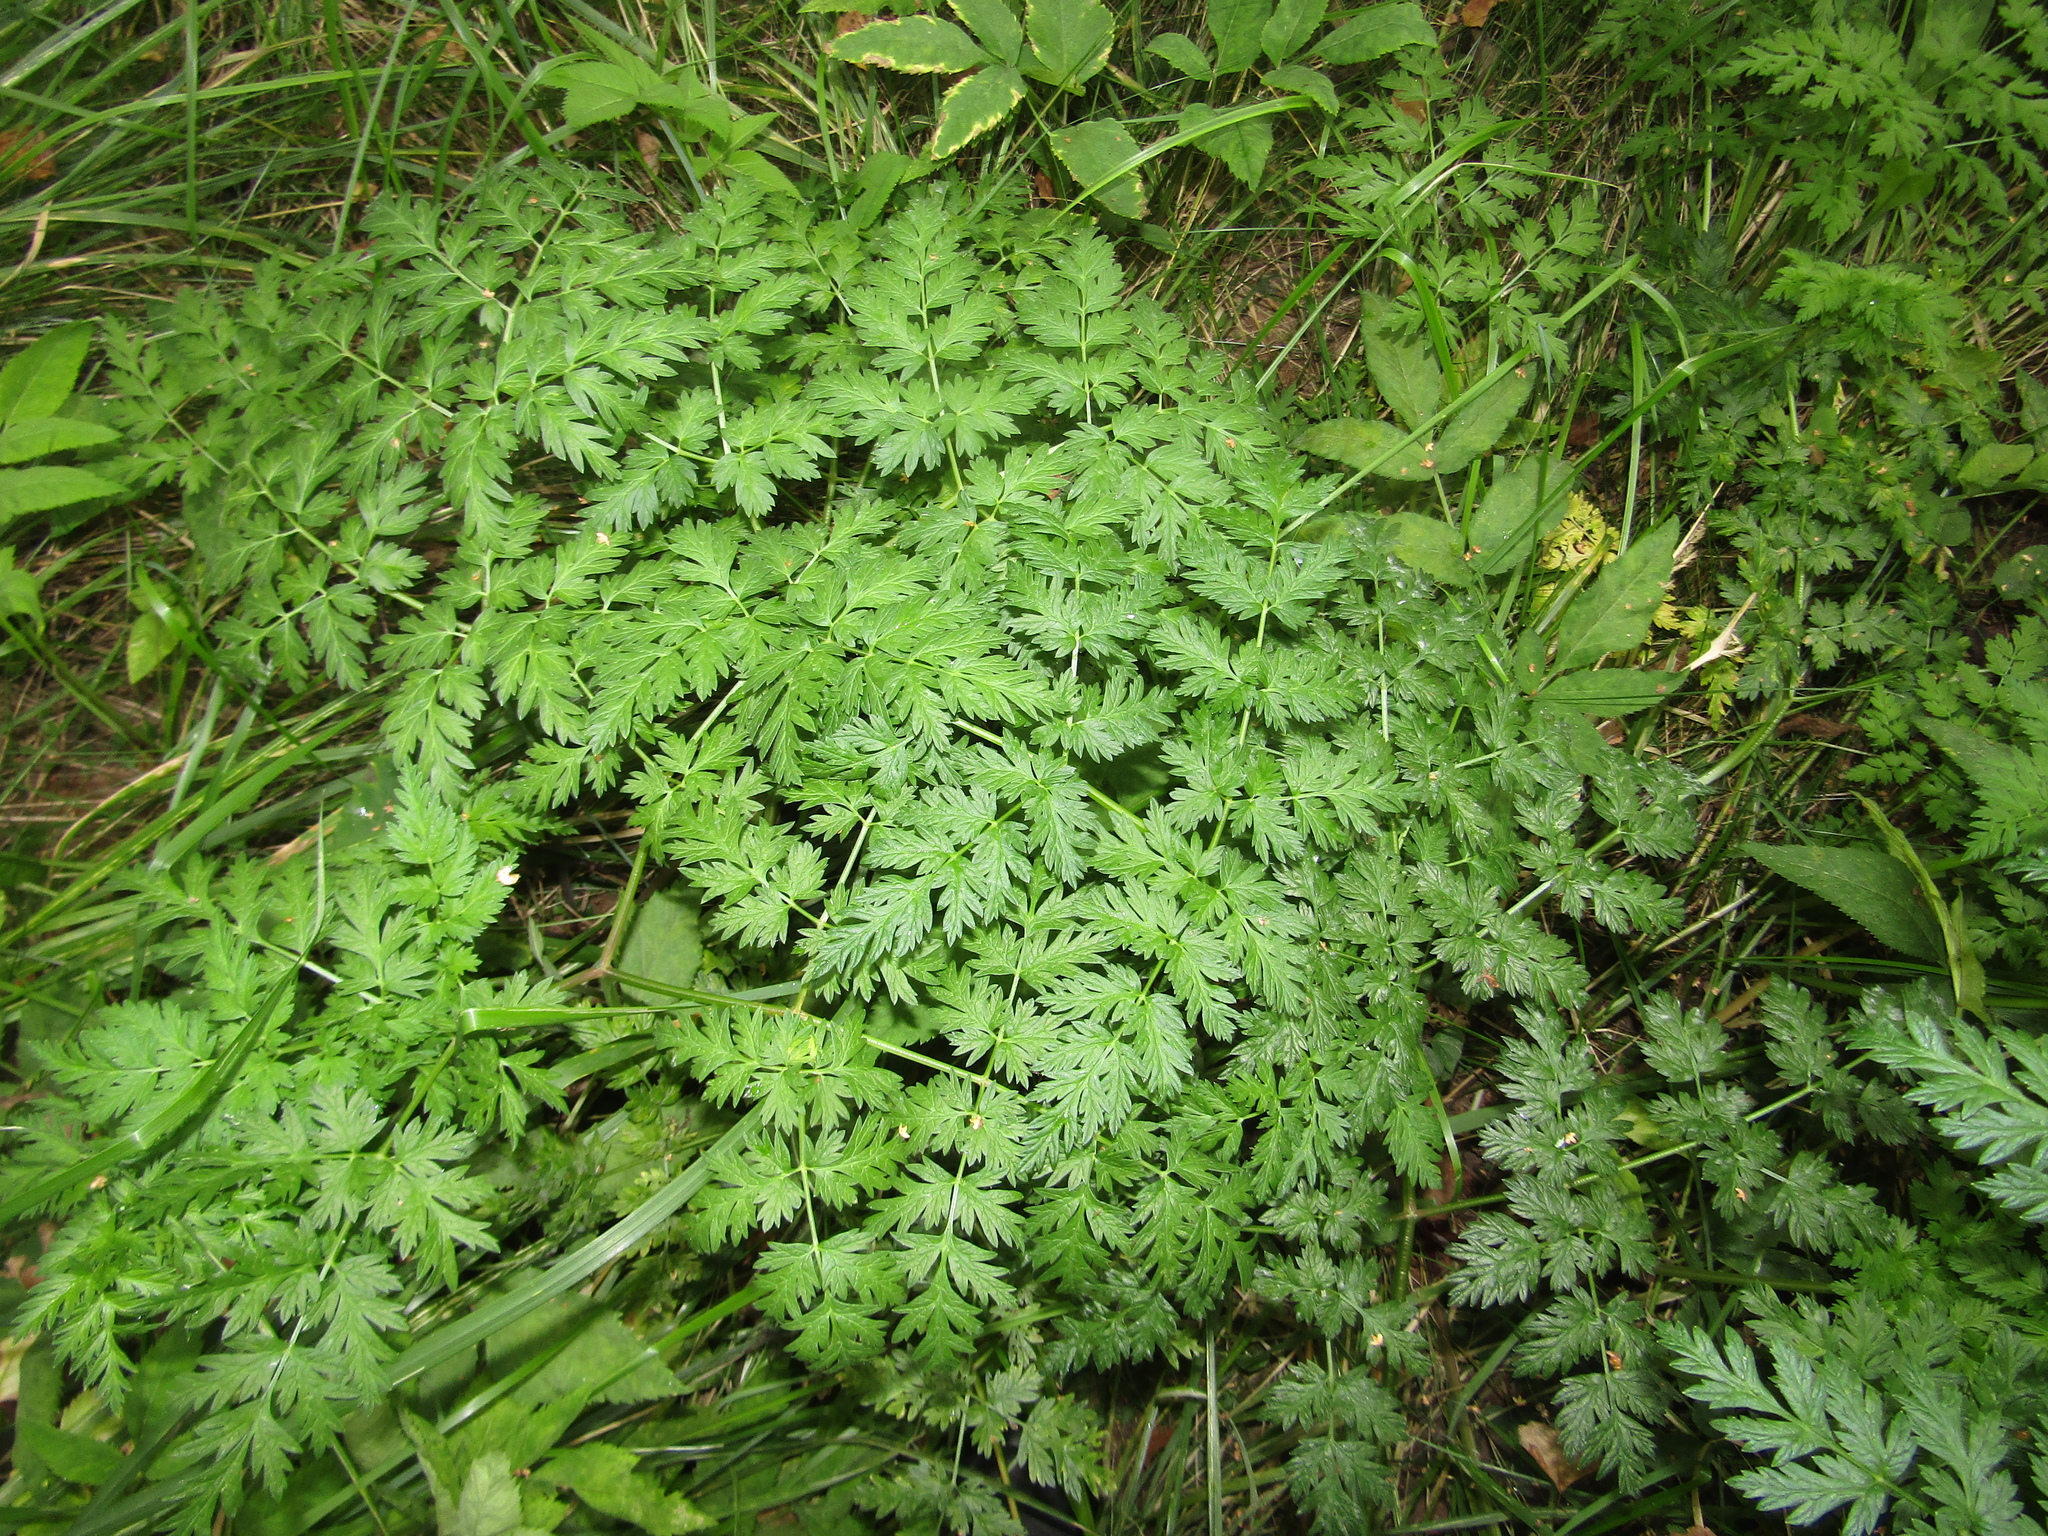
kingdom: Plantae
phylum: Tracheophyta
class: Magnoliopsida
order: Apiales
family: Apiaceae
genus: Anthriscus
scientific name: Anthriscus sylvestris
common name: Cow parsley
